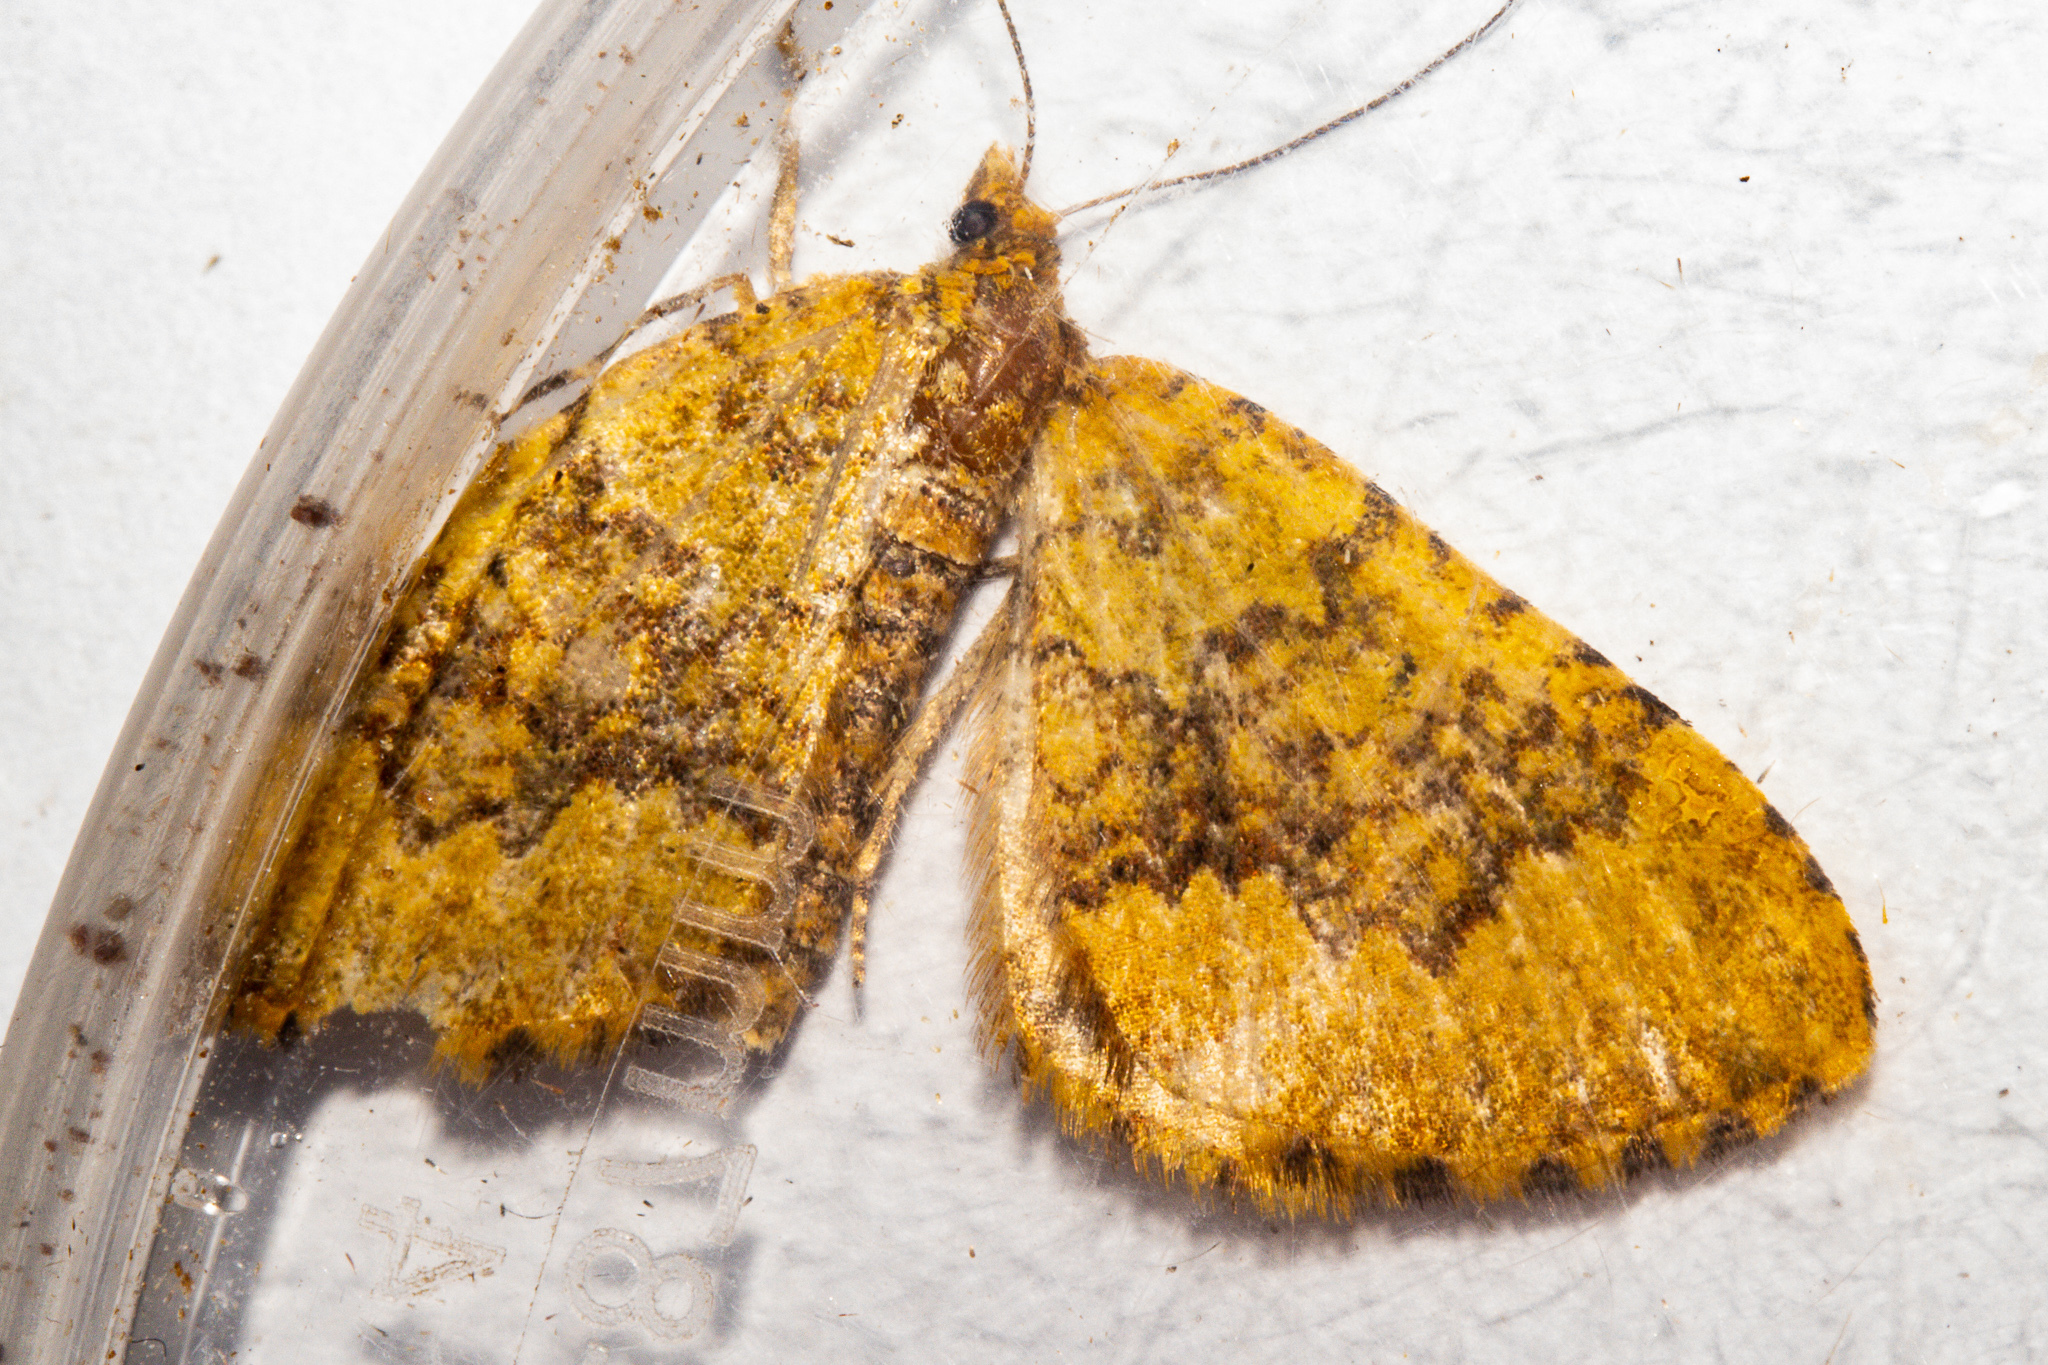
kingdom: Animalia
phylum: Arthropoda
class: Insecta
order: Lepidoptera
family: Geometridae
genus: Asaphodes
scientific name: Asaphodes prasinias
